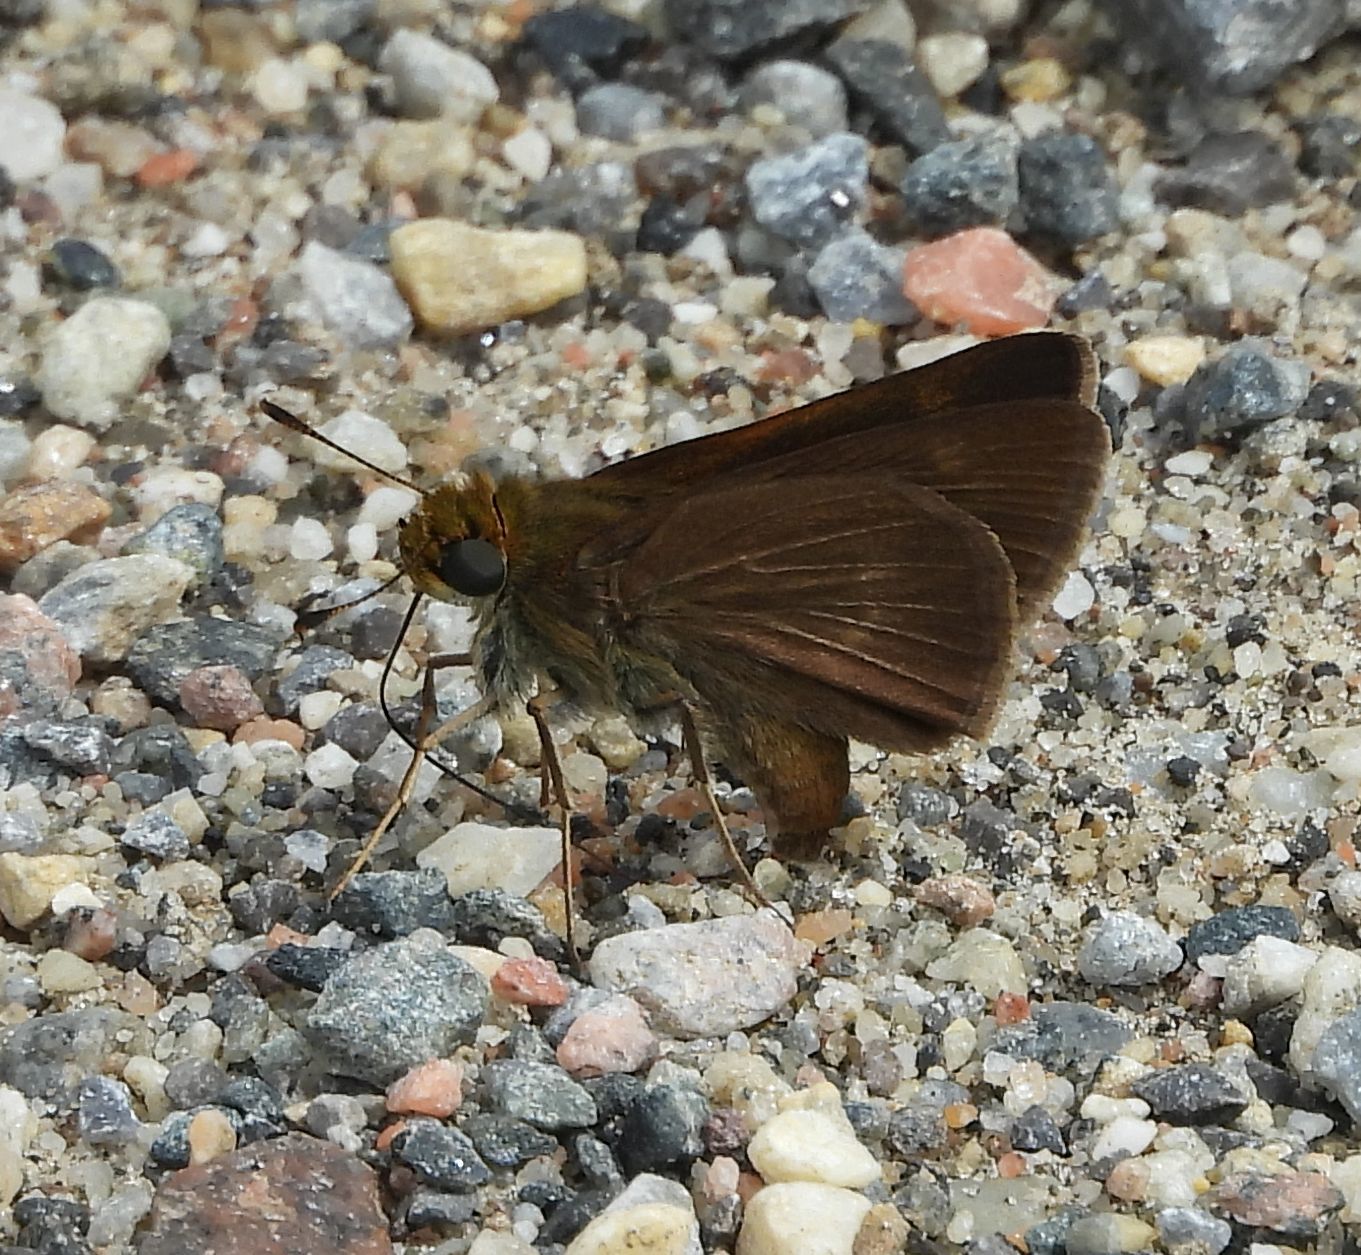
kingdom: Animalia
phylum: Arthropoda
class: Insecta
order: Lepidoptera
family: Hesperiidae
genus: Euphyes
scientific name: Euphyes vestris
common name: Dun skipper
